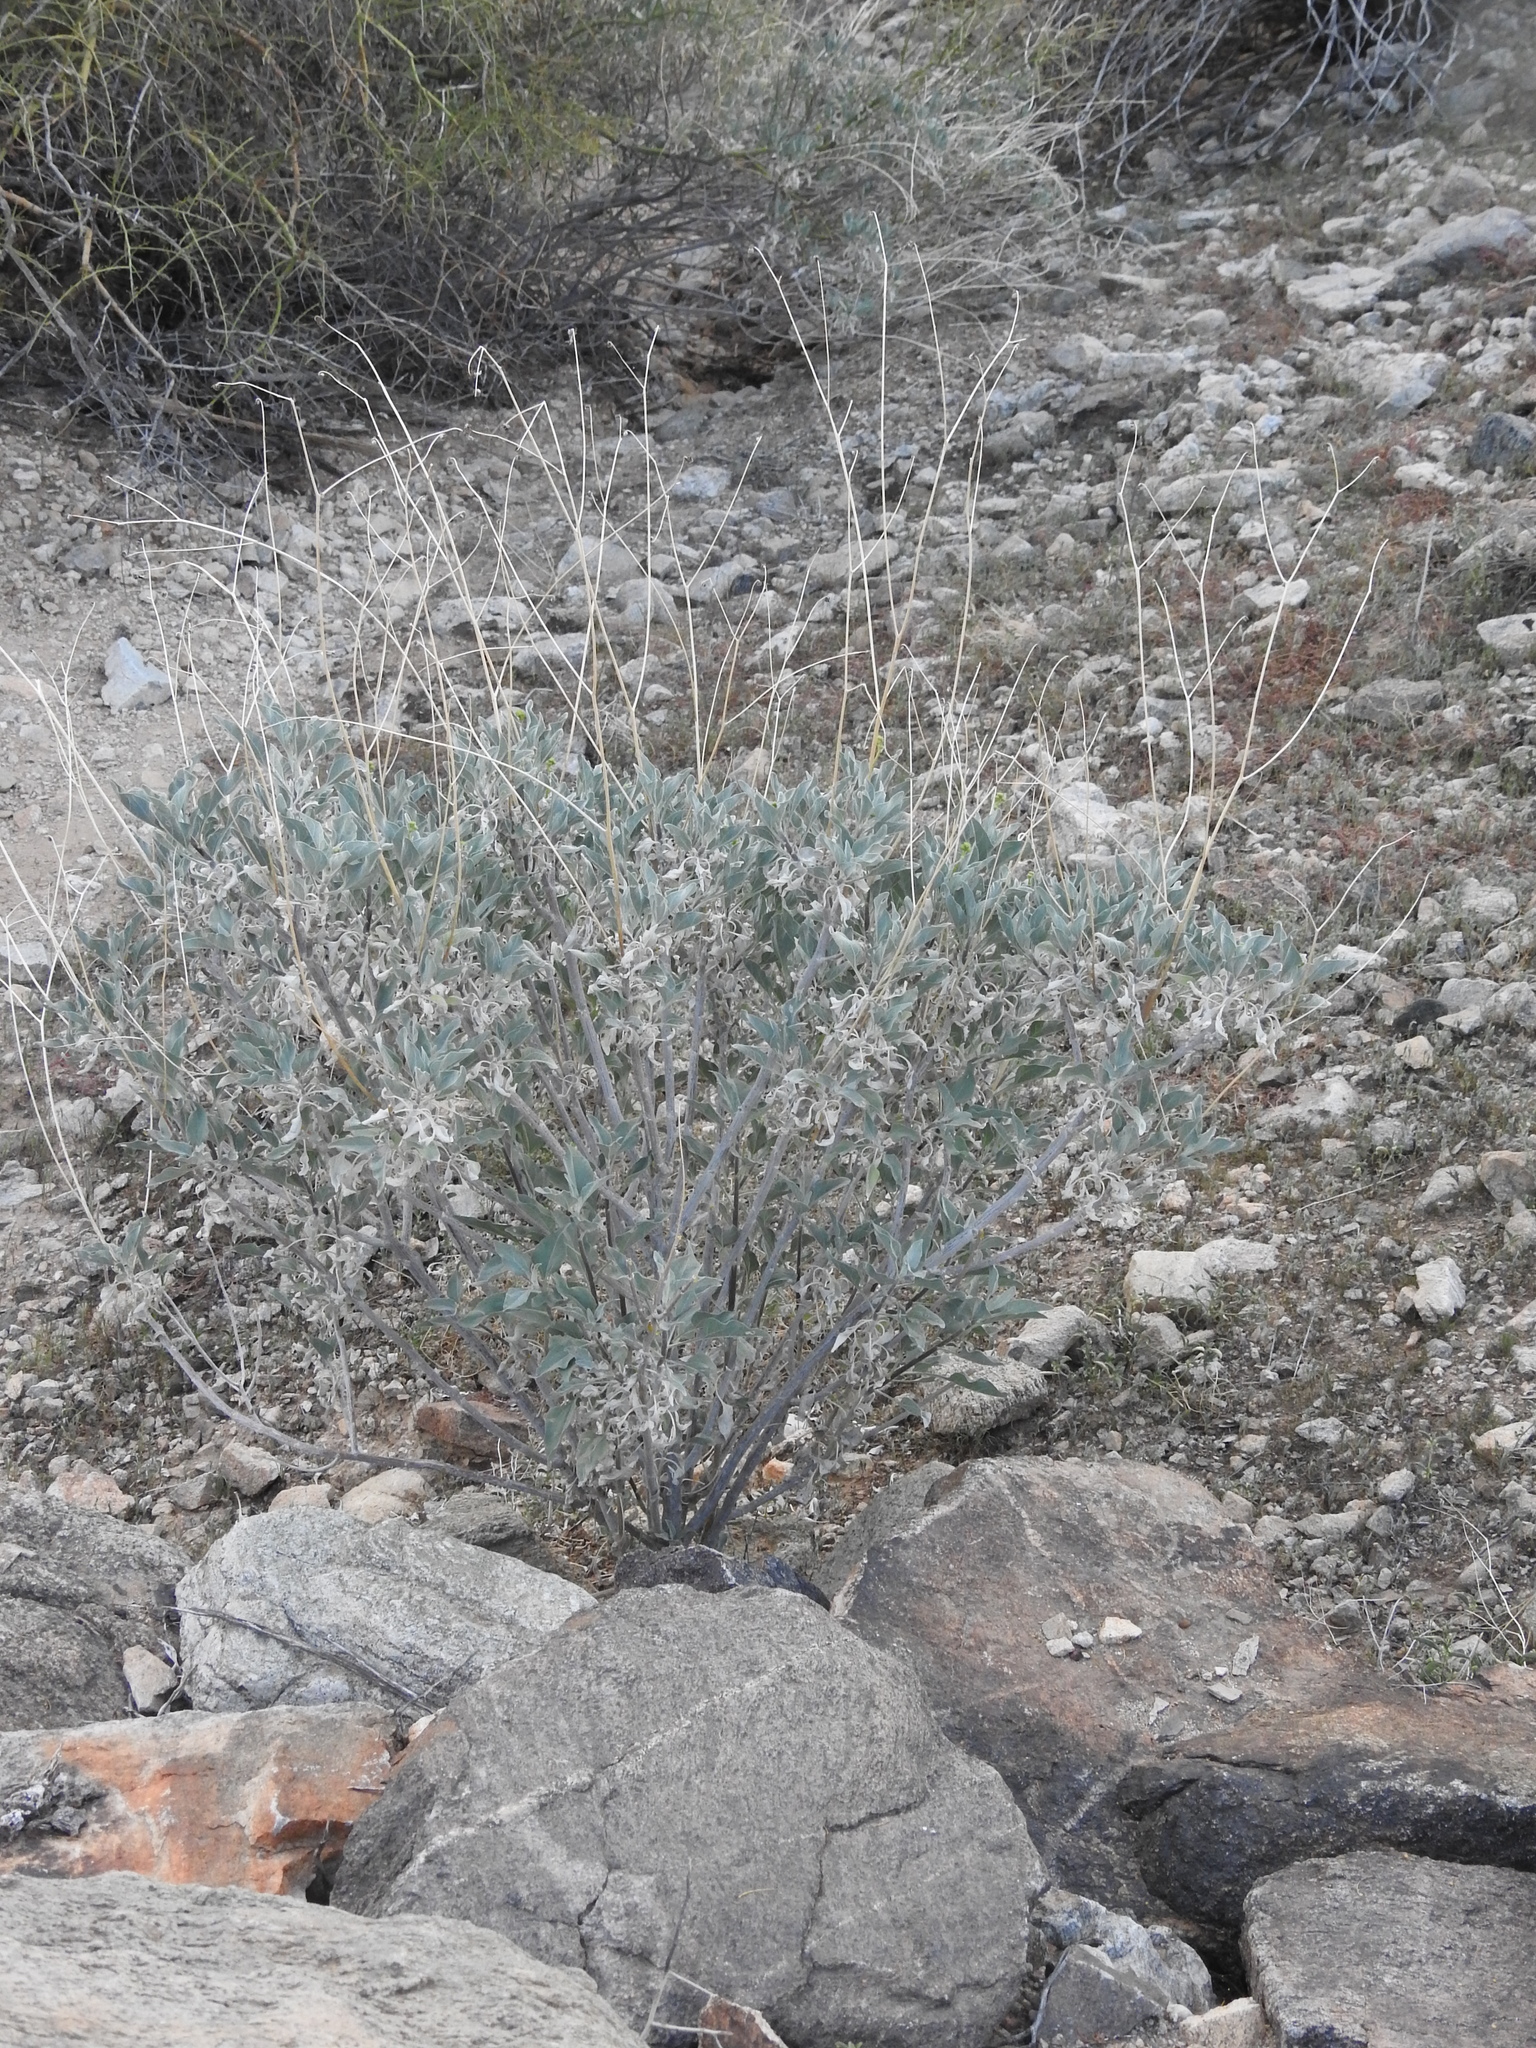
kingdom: Plantae
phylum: Tracheophyta
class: Magnoliopsida
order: Asterales
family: Asteraceae
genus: Encelia
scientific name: Encelia farinosa
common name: Brittlebush
